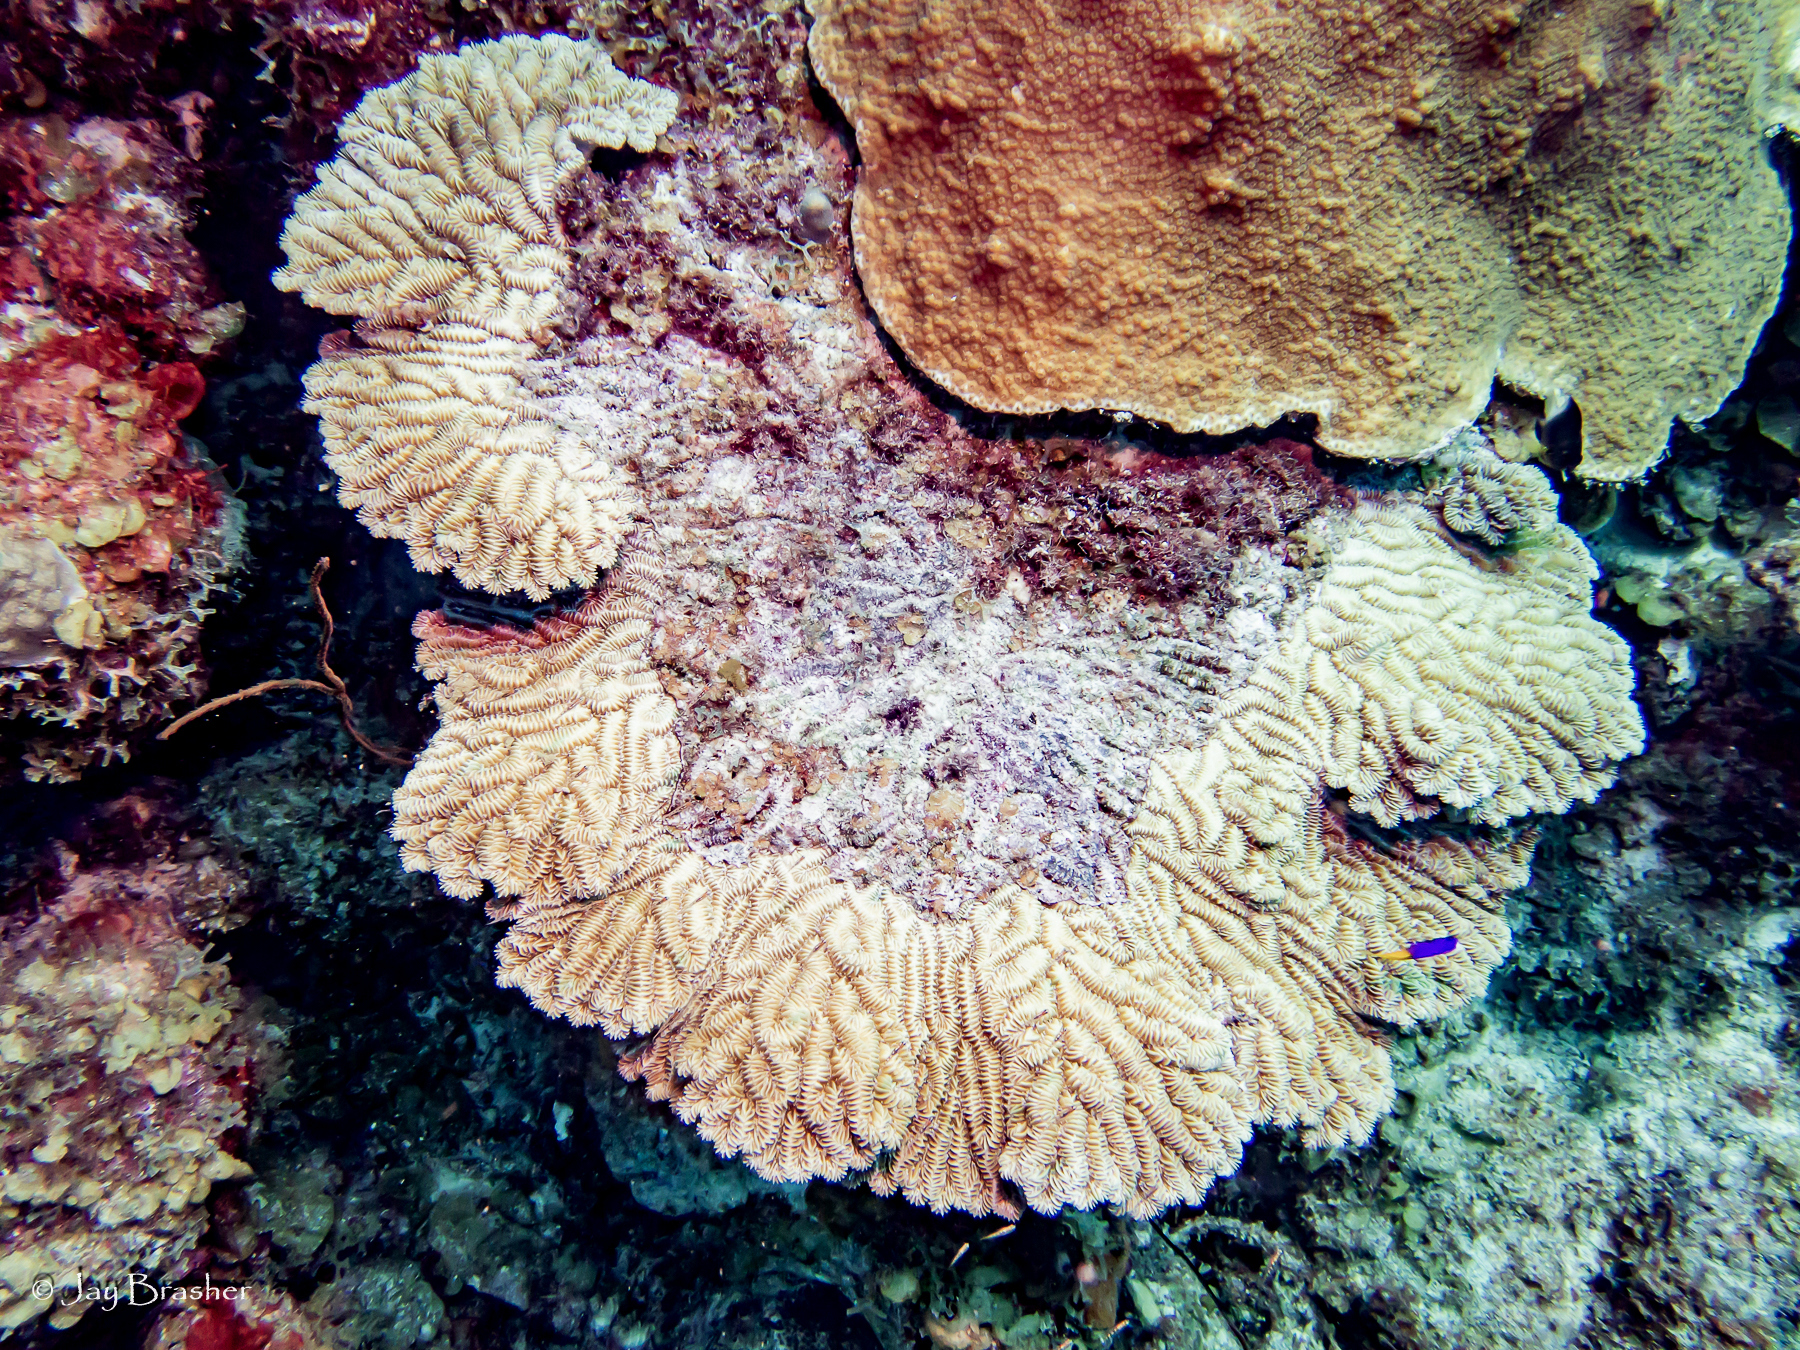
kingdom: Animalia
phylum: Cnidaria
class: Anthozoa
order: Scleractinia
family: Meandrinidae
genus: Meandrina
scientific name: Meandrina meandrites
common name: Maze coral
